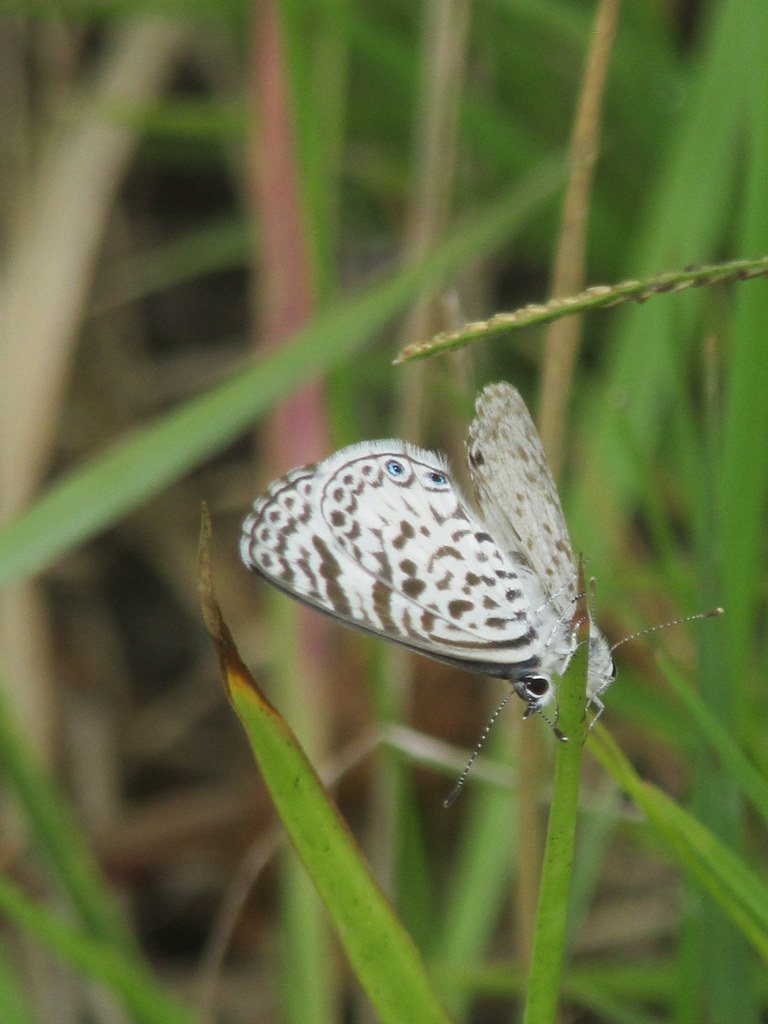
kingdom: Animalia
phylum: Arthropoda
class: Insecta
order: Lepidoptera
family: Lycaenidae
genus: Leptotes
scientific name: Leptotes cassius
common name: Cassius blue
